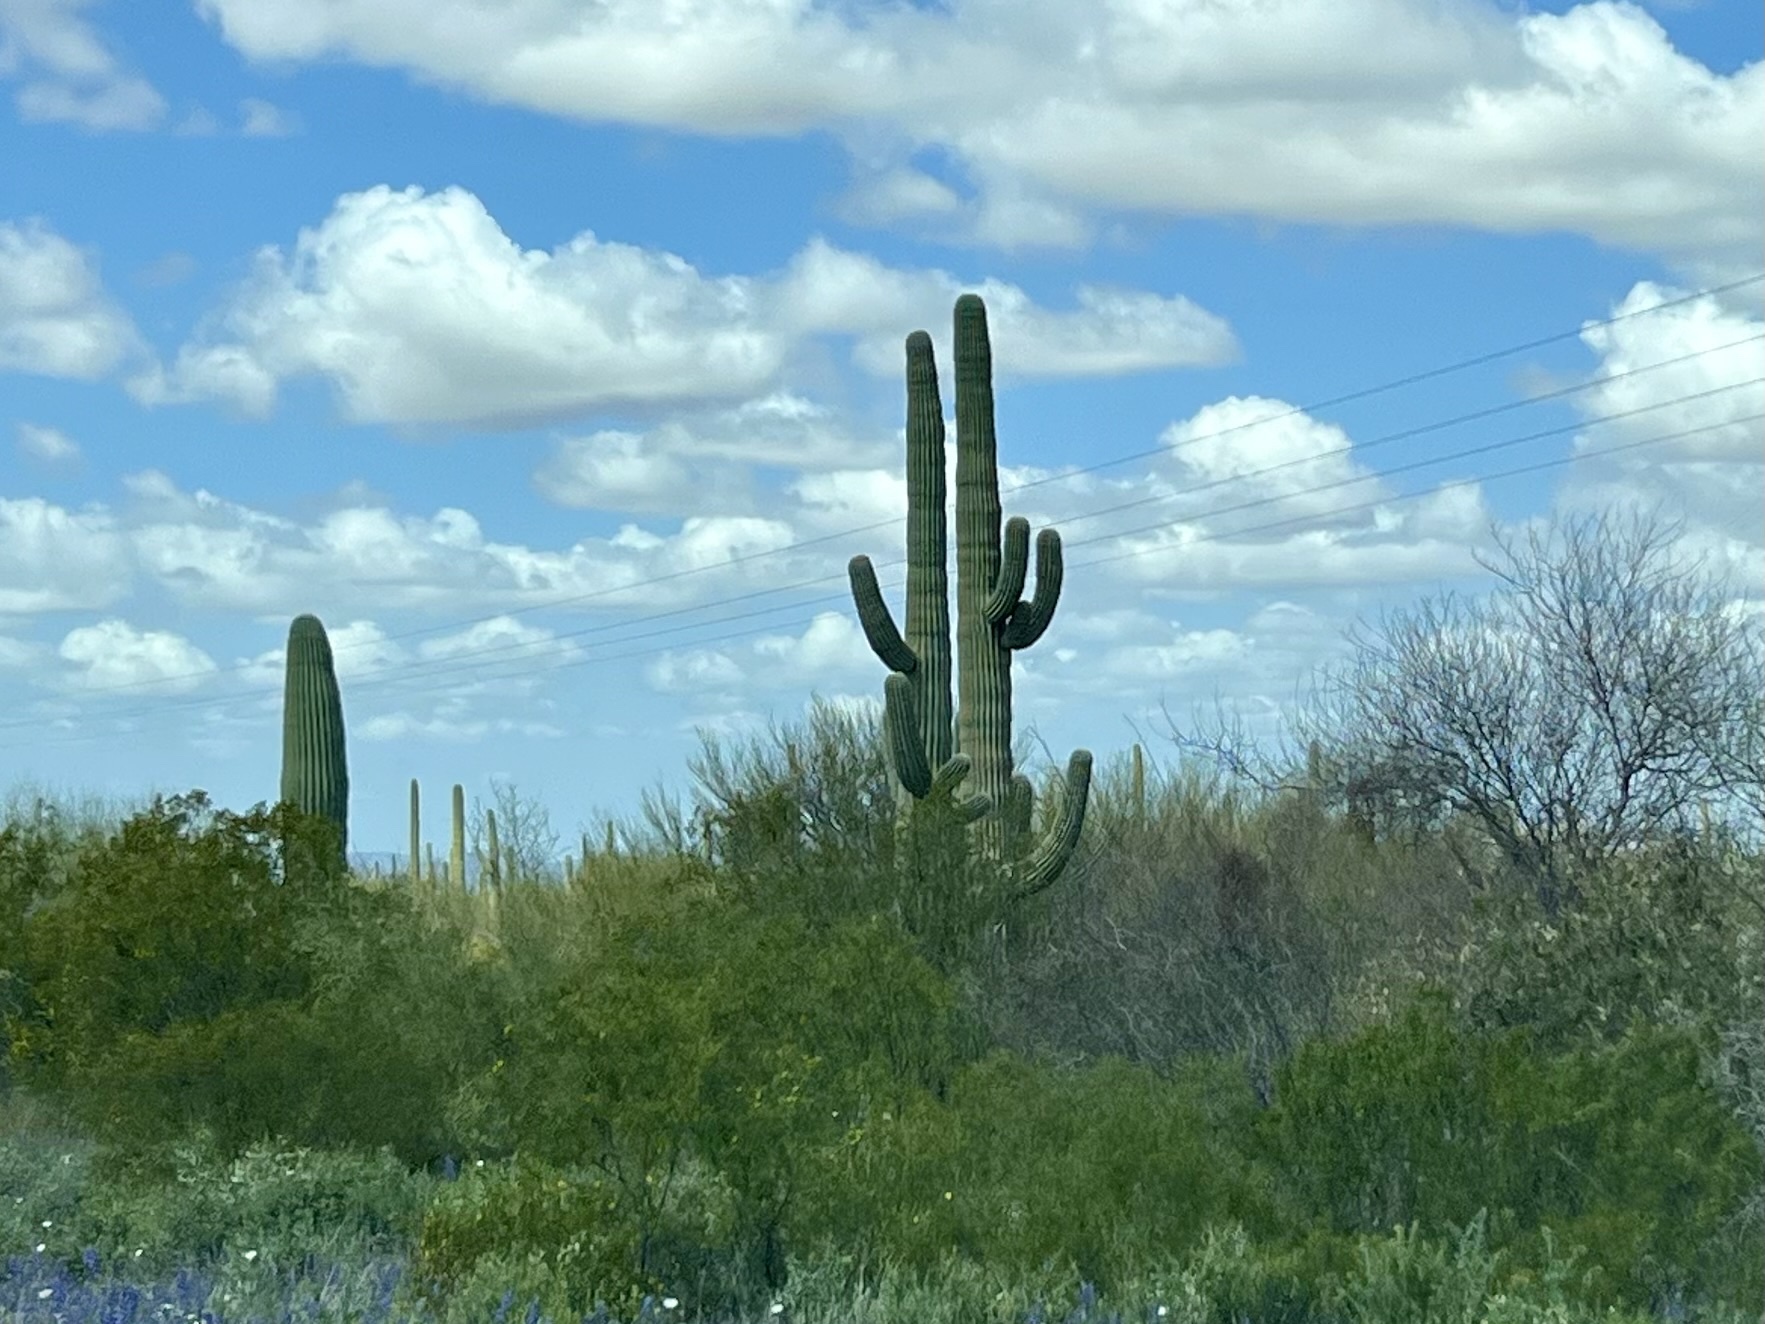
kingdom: Plantae
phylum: Tracheophyta
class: Magnoliopsida
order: Caryophyllales
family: Cactaceae
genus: Carnegiea
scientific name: Carnegiea gigantea
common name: Saguaro
